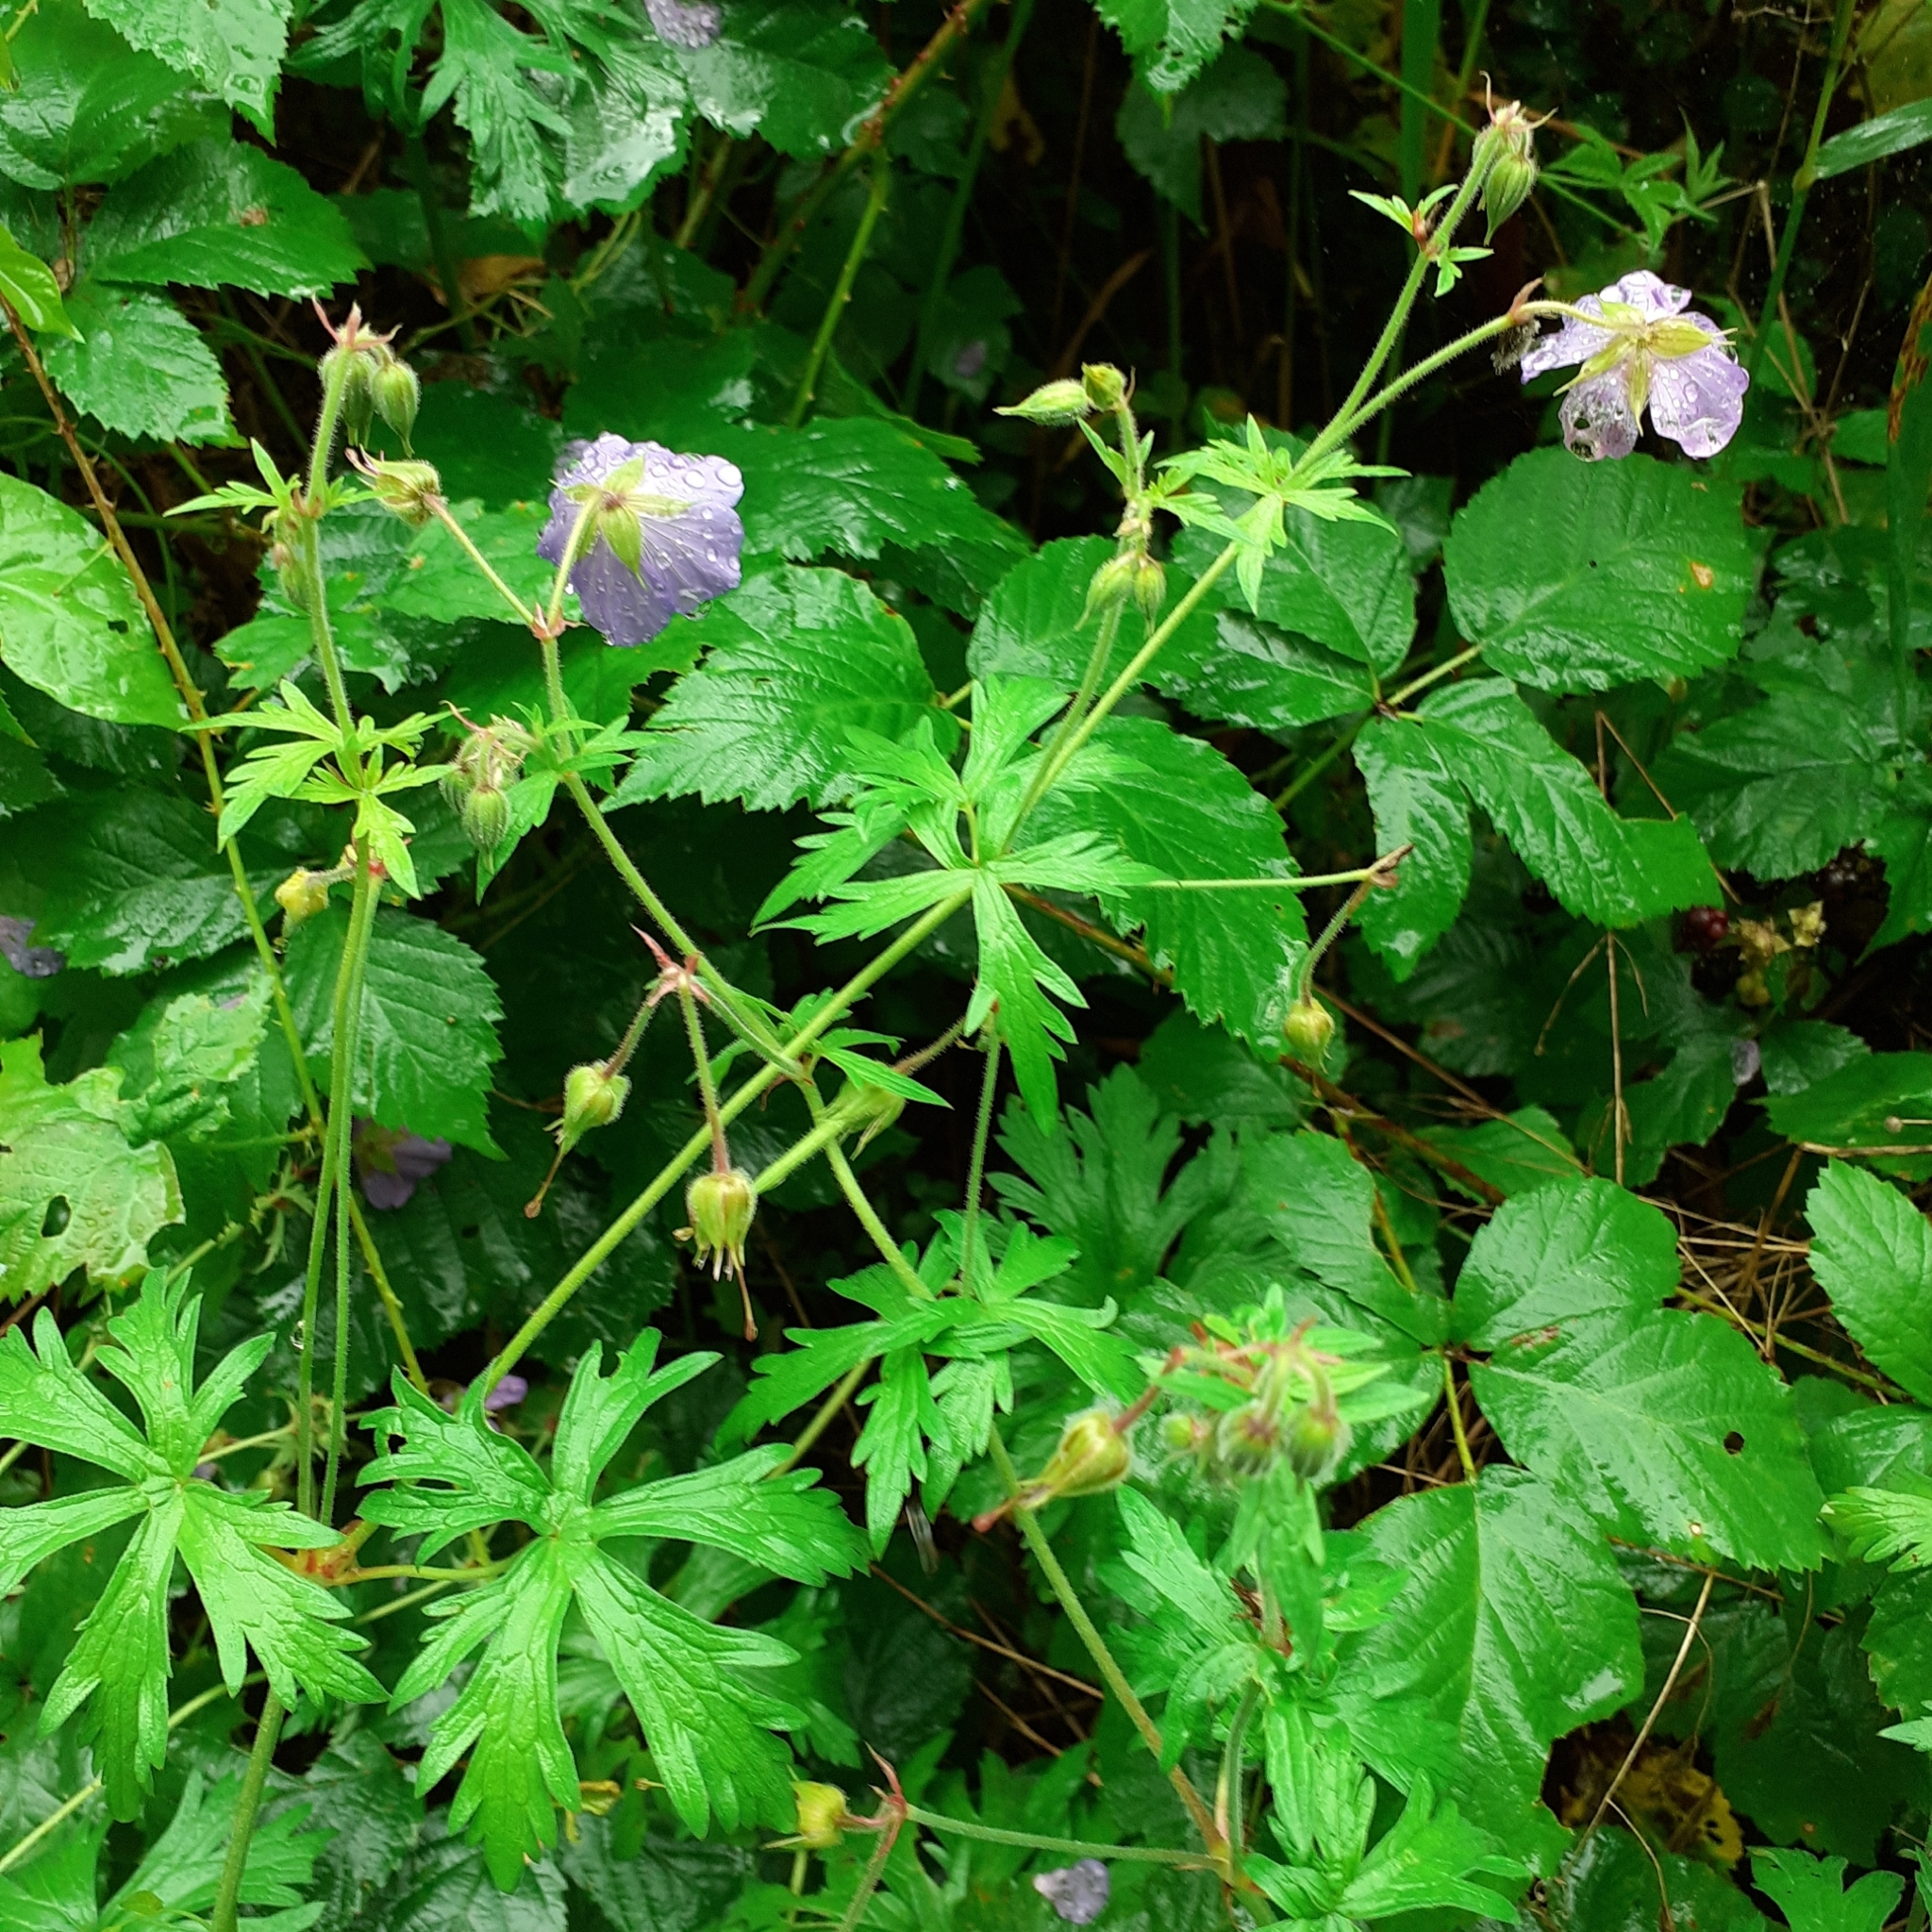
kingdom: Plantae
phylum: Tracheophyta
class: Magnoliopsida
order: Geraniales
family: Geraniaceae
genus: Geranium
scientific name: Geranium pratense
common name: Meadow crane's-bill
